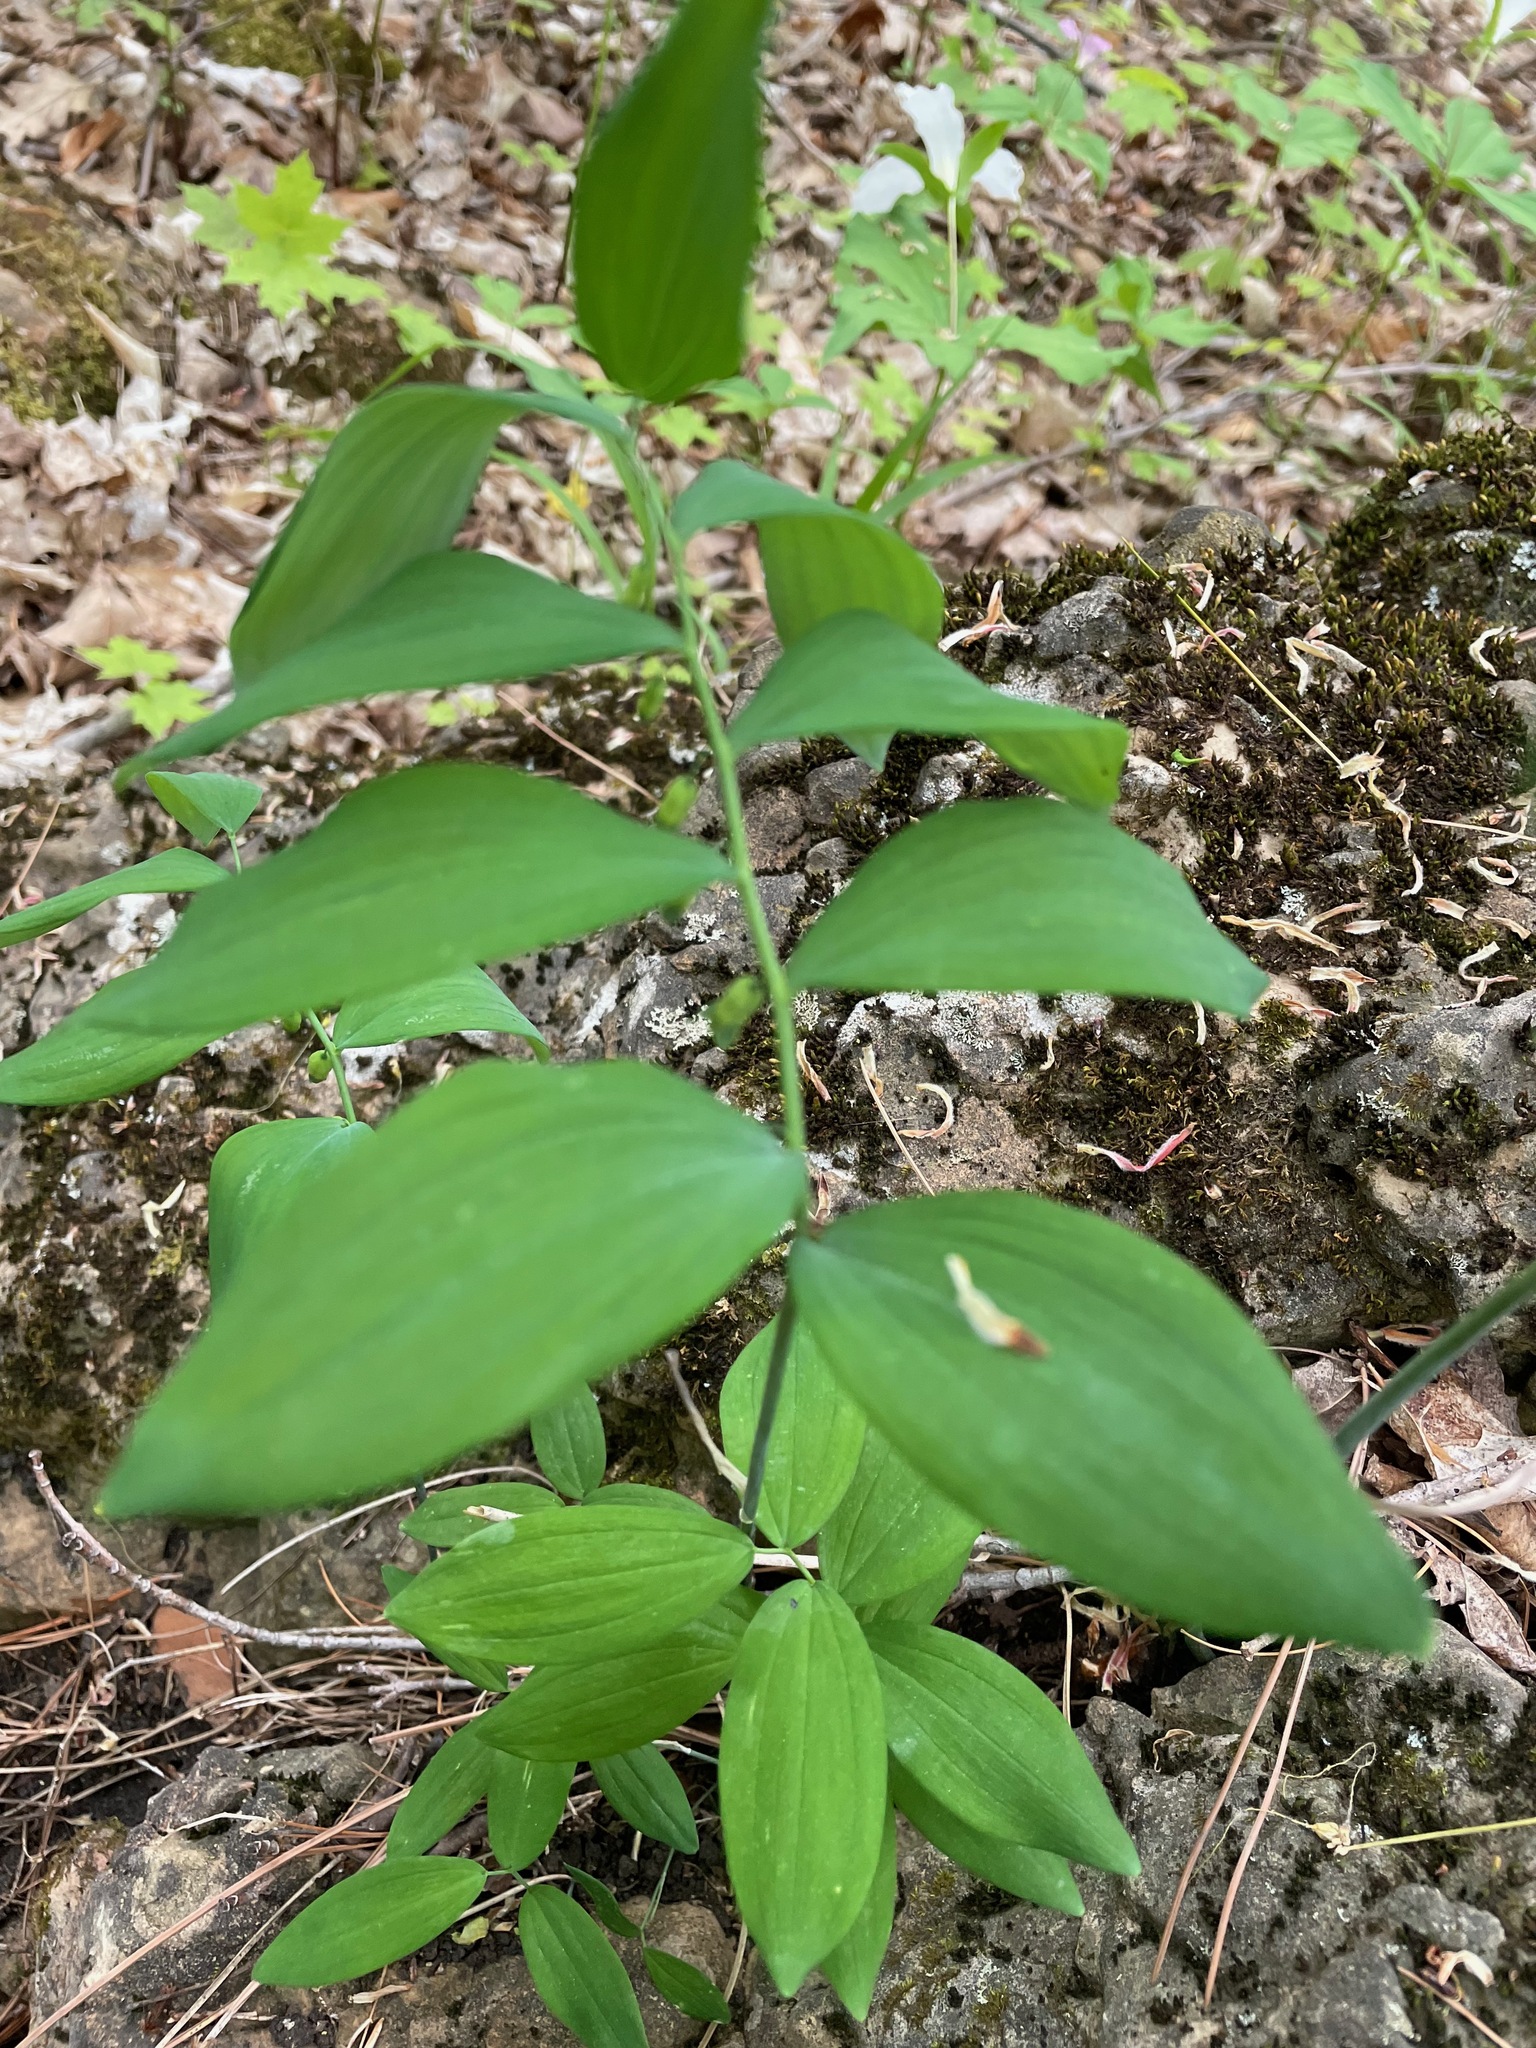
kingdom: Plantae
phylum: Tracheophyta
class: Liliopsida
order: Asparagales
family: Asparagaceae
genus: Polygonatum
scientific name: Polygonatum pubescens
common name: Downy solomon's seal
